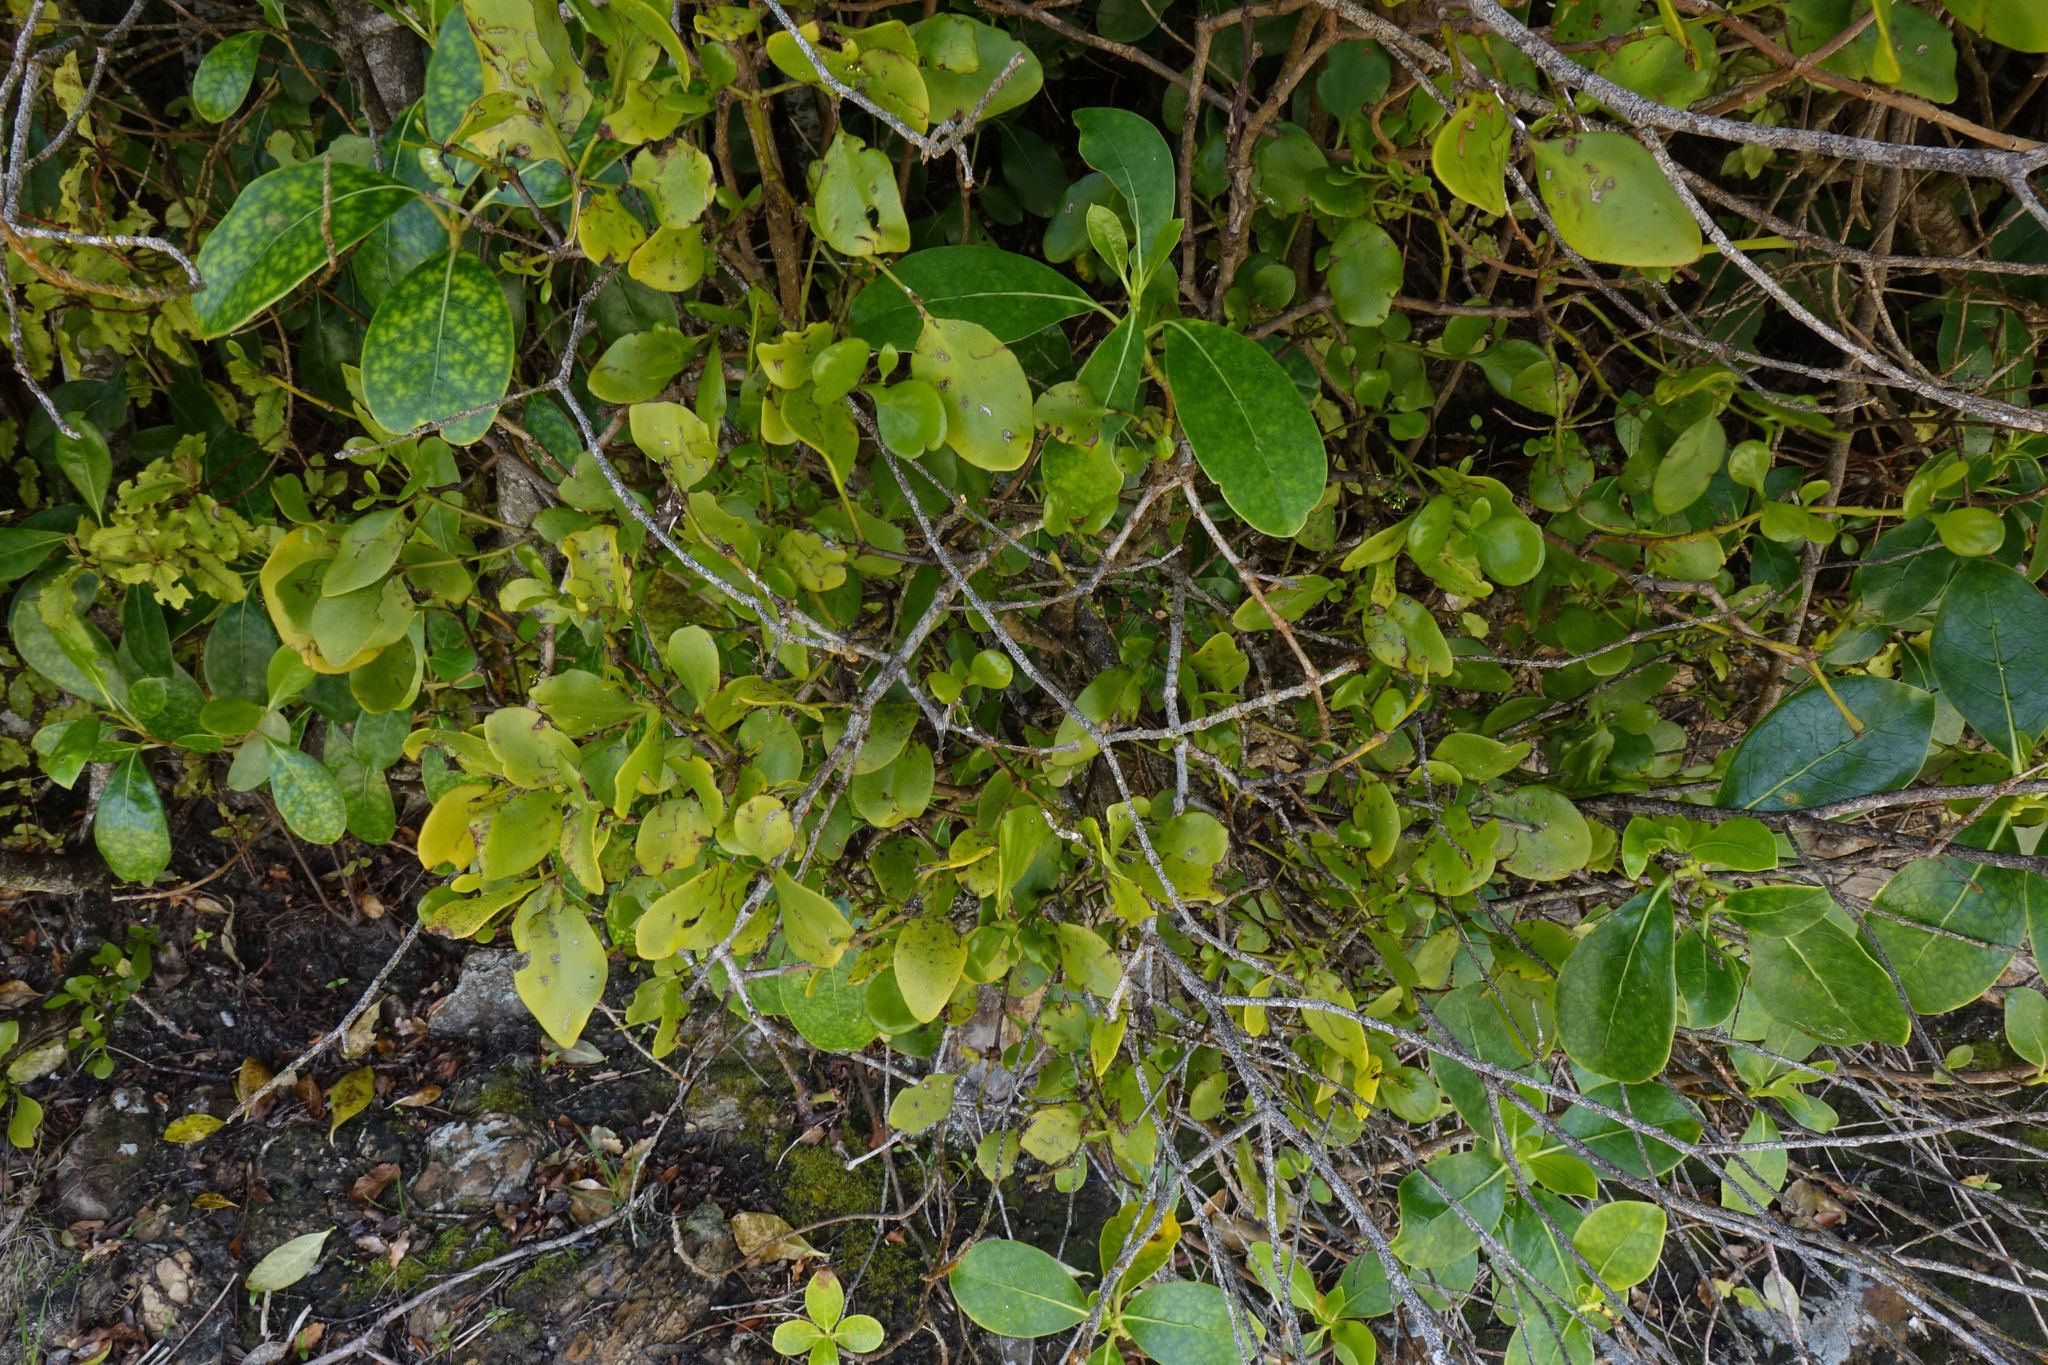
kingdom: Plantae
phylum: Tracheophyta
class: Magnoliopsida
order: Santalales
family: Loranthaceae
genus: Ileostylus
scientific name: Ileostylus micranthus
